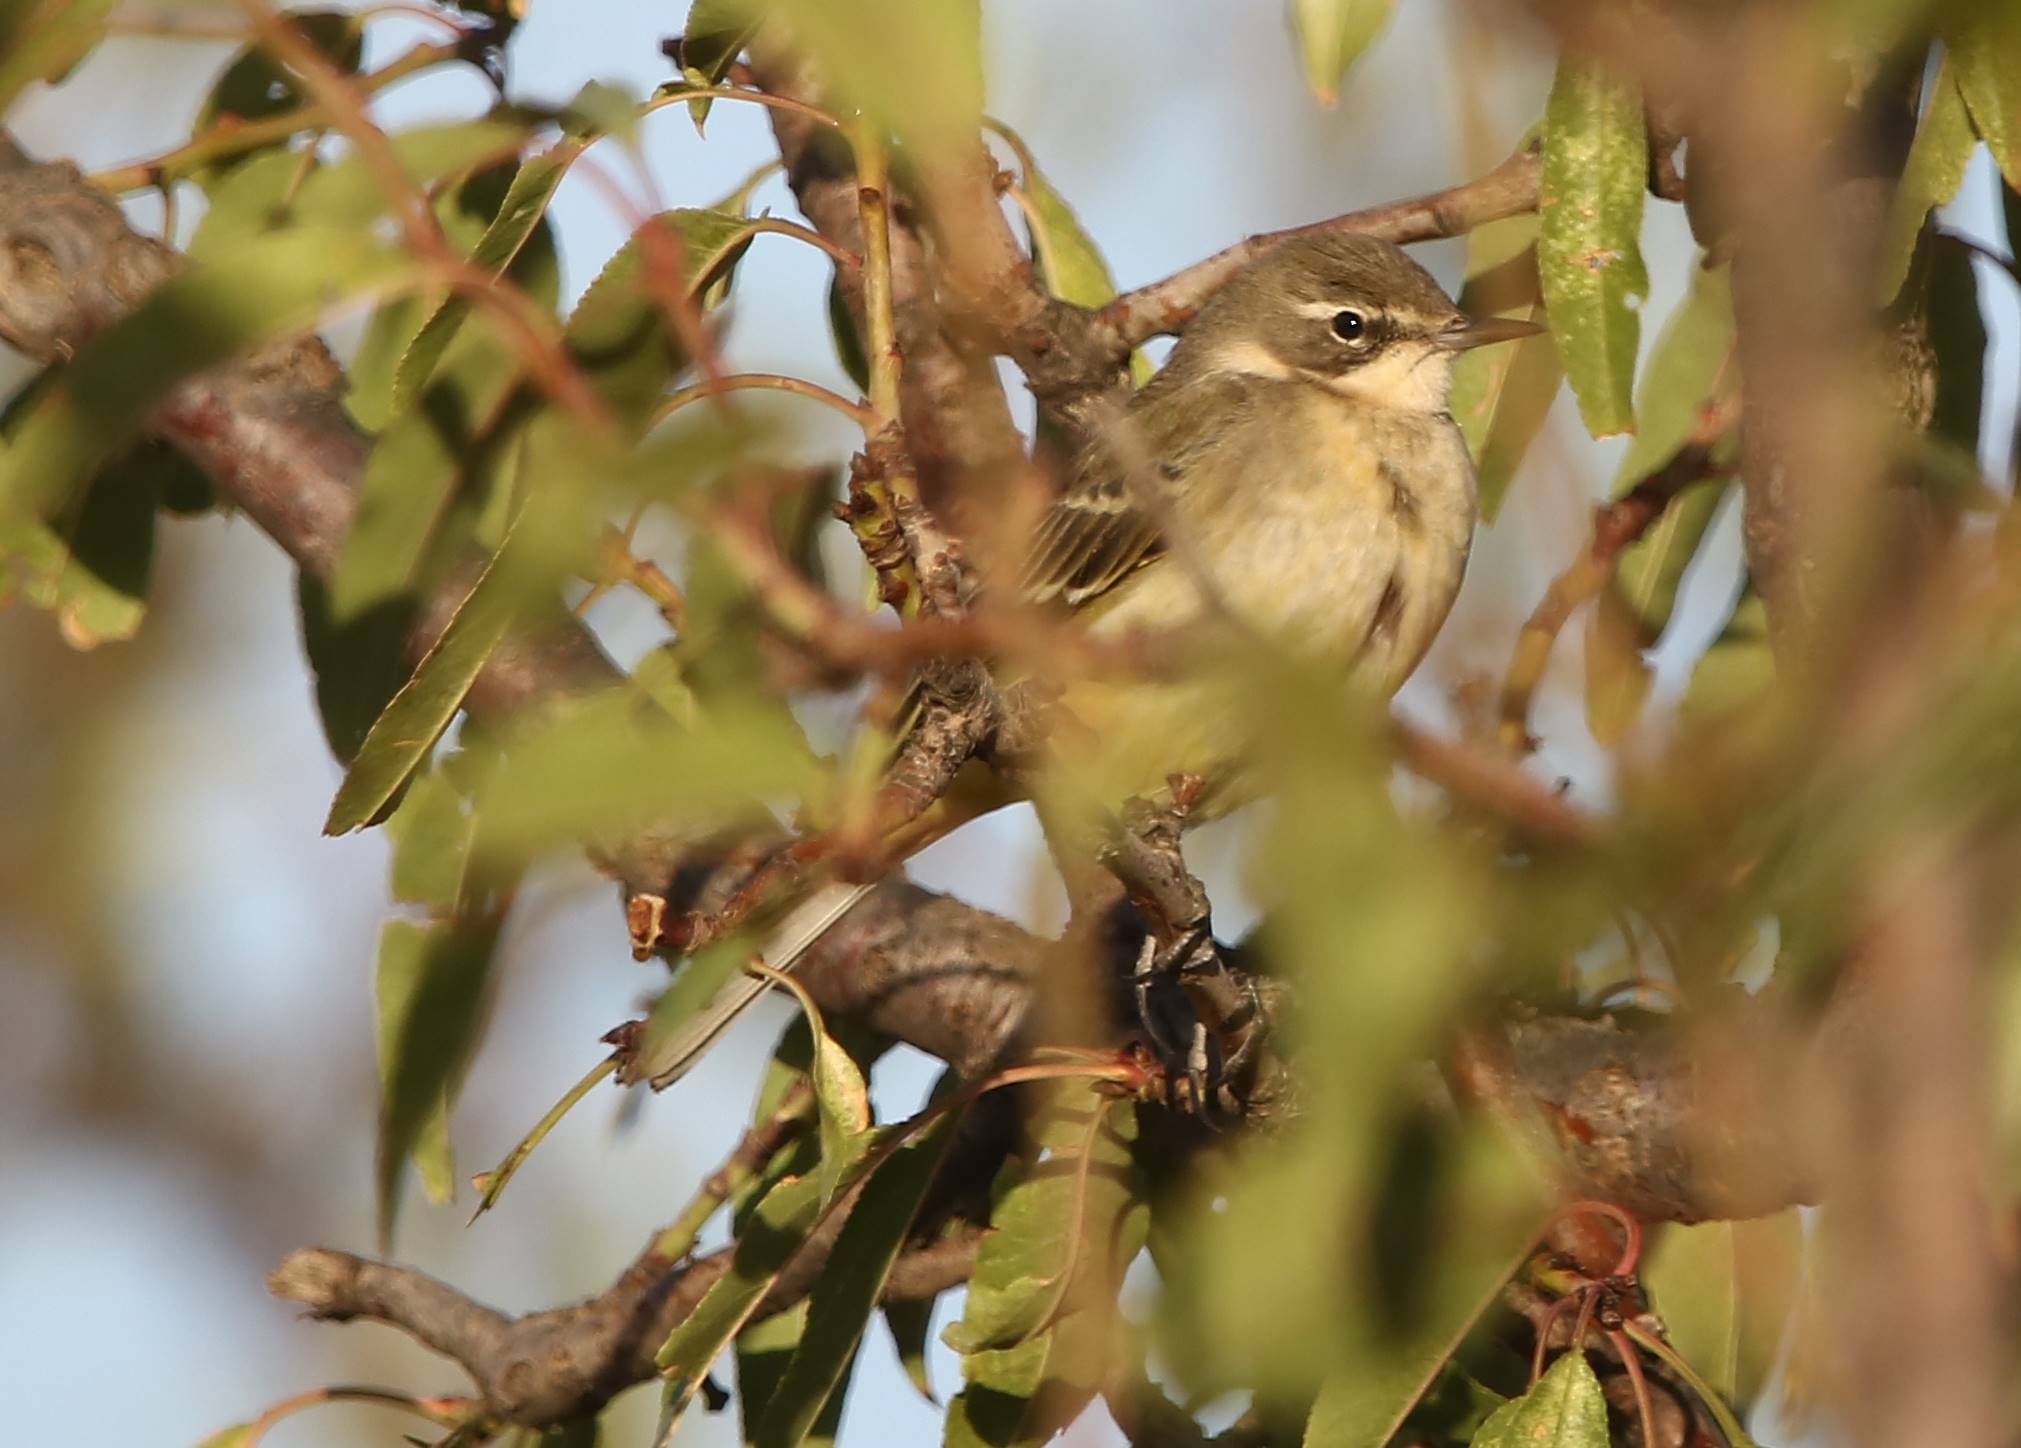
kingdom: Animalia
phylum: Chordata
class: Aves
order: Passeriformes
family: Motacillidae
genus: Motacilla
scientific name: Motacilla flava
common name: Western yellow wagtail
